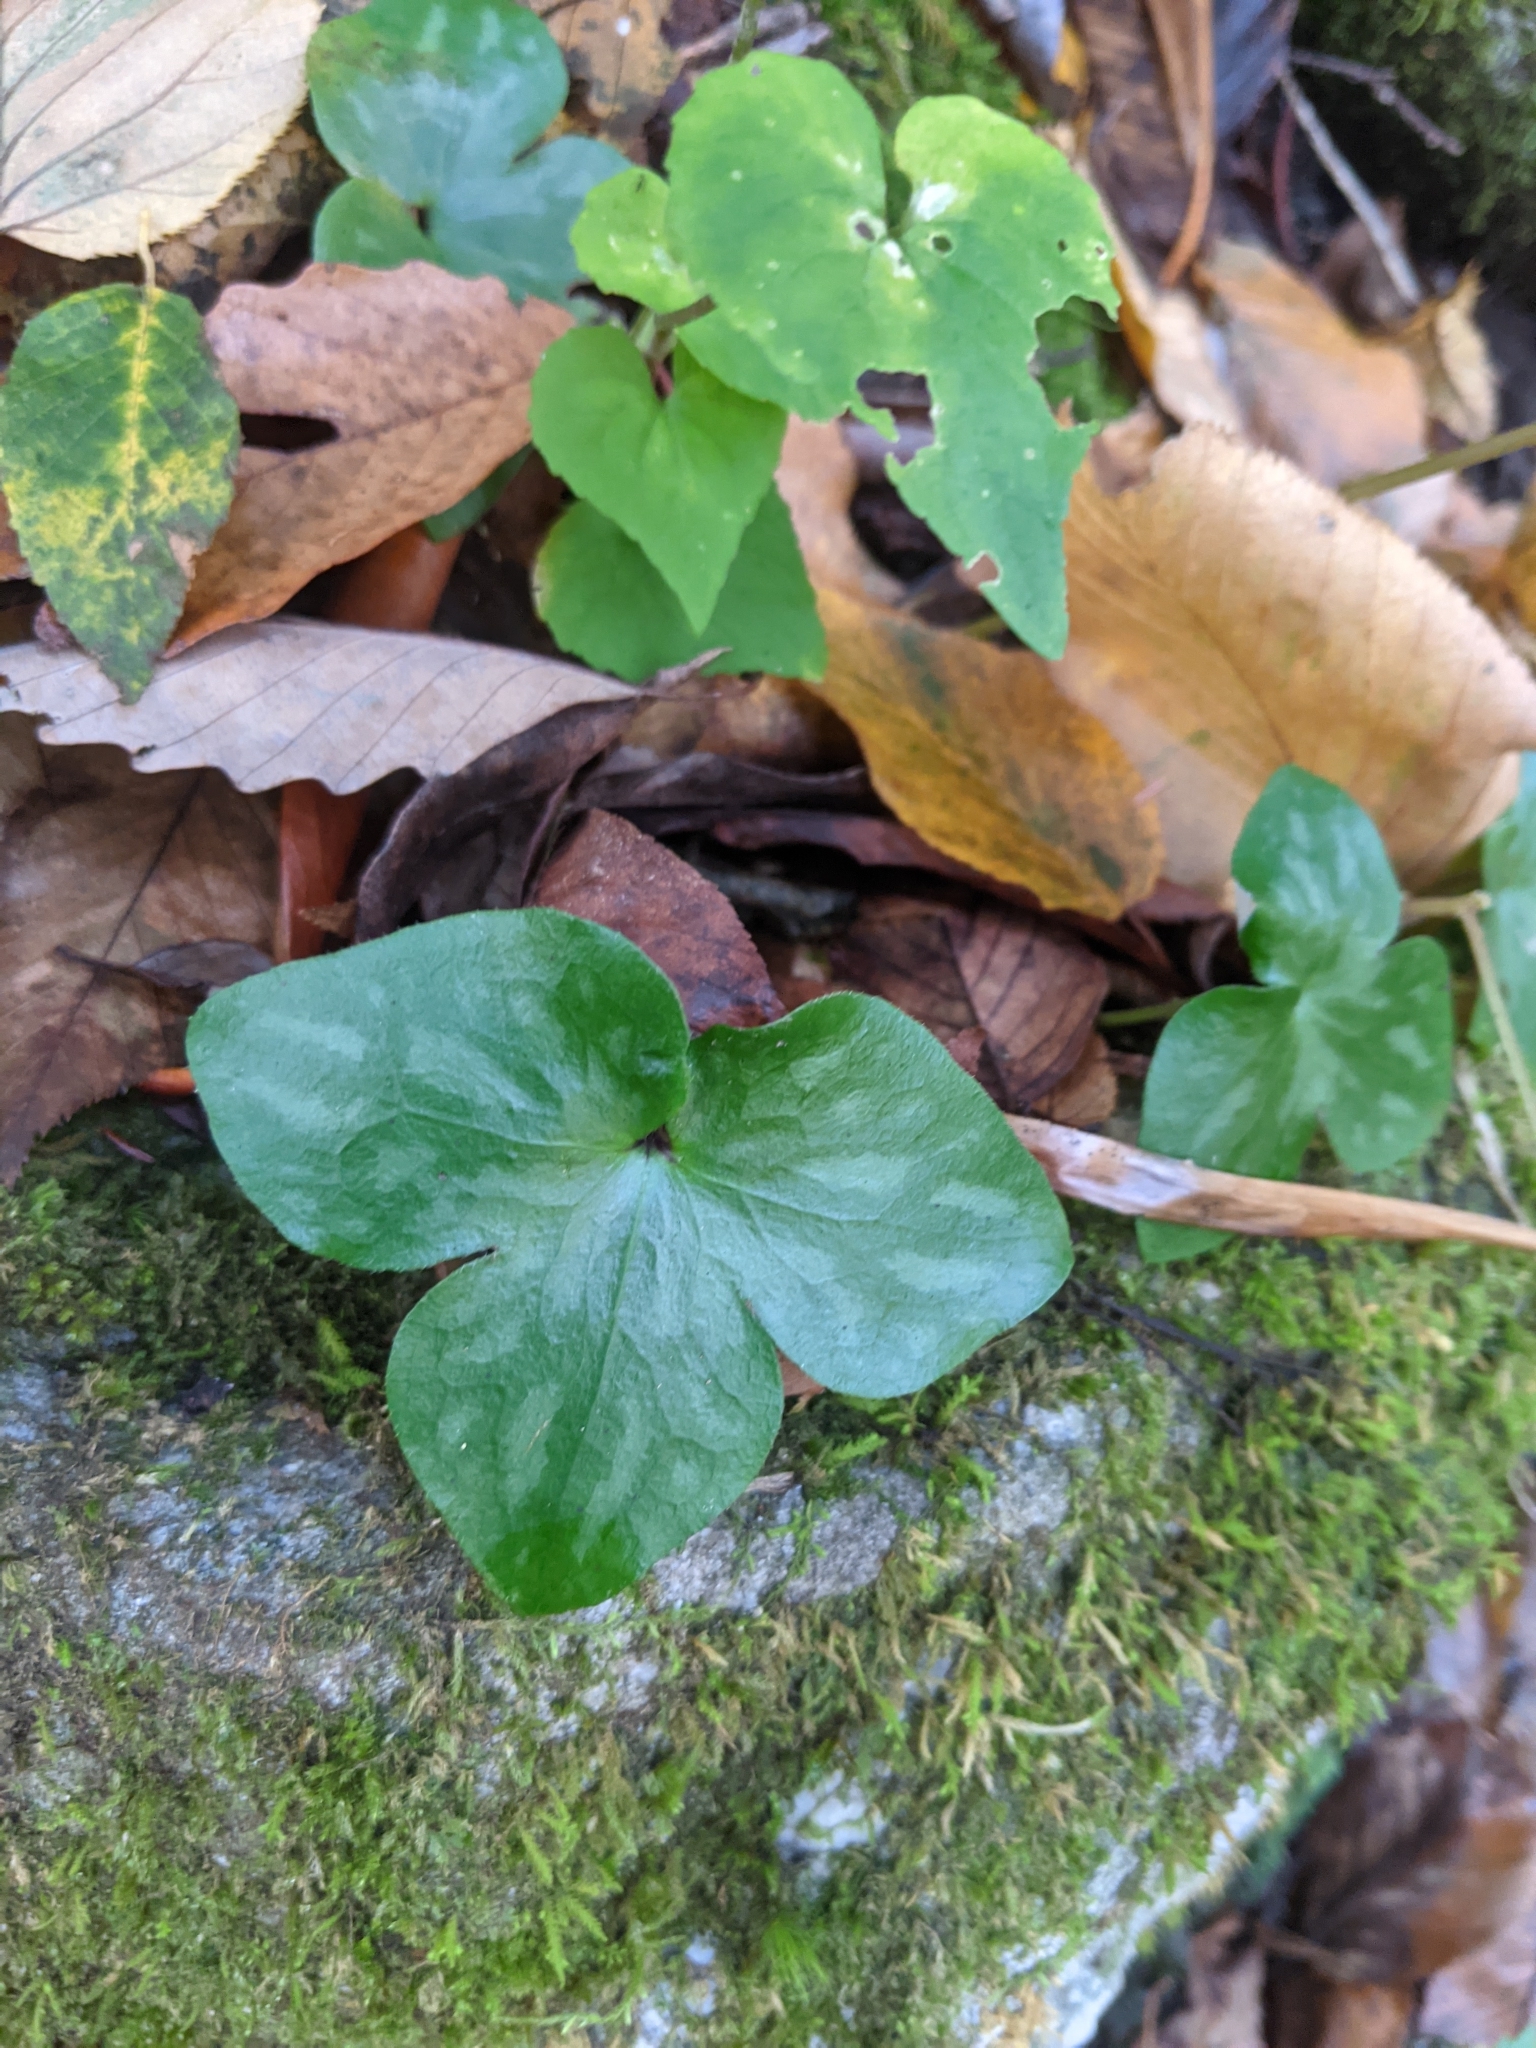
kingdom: Plantae
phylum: Tracheophyta
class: Magnoliopsida
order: Ranunculales
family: Ranunculaceae
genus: Hepatica
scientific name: Hepatica acutiloba
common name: Sharp-lobed hepatica
